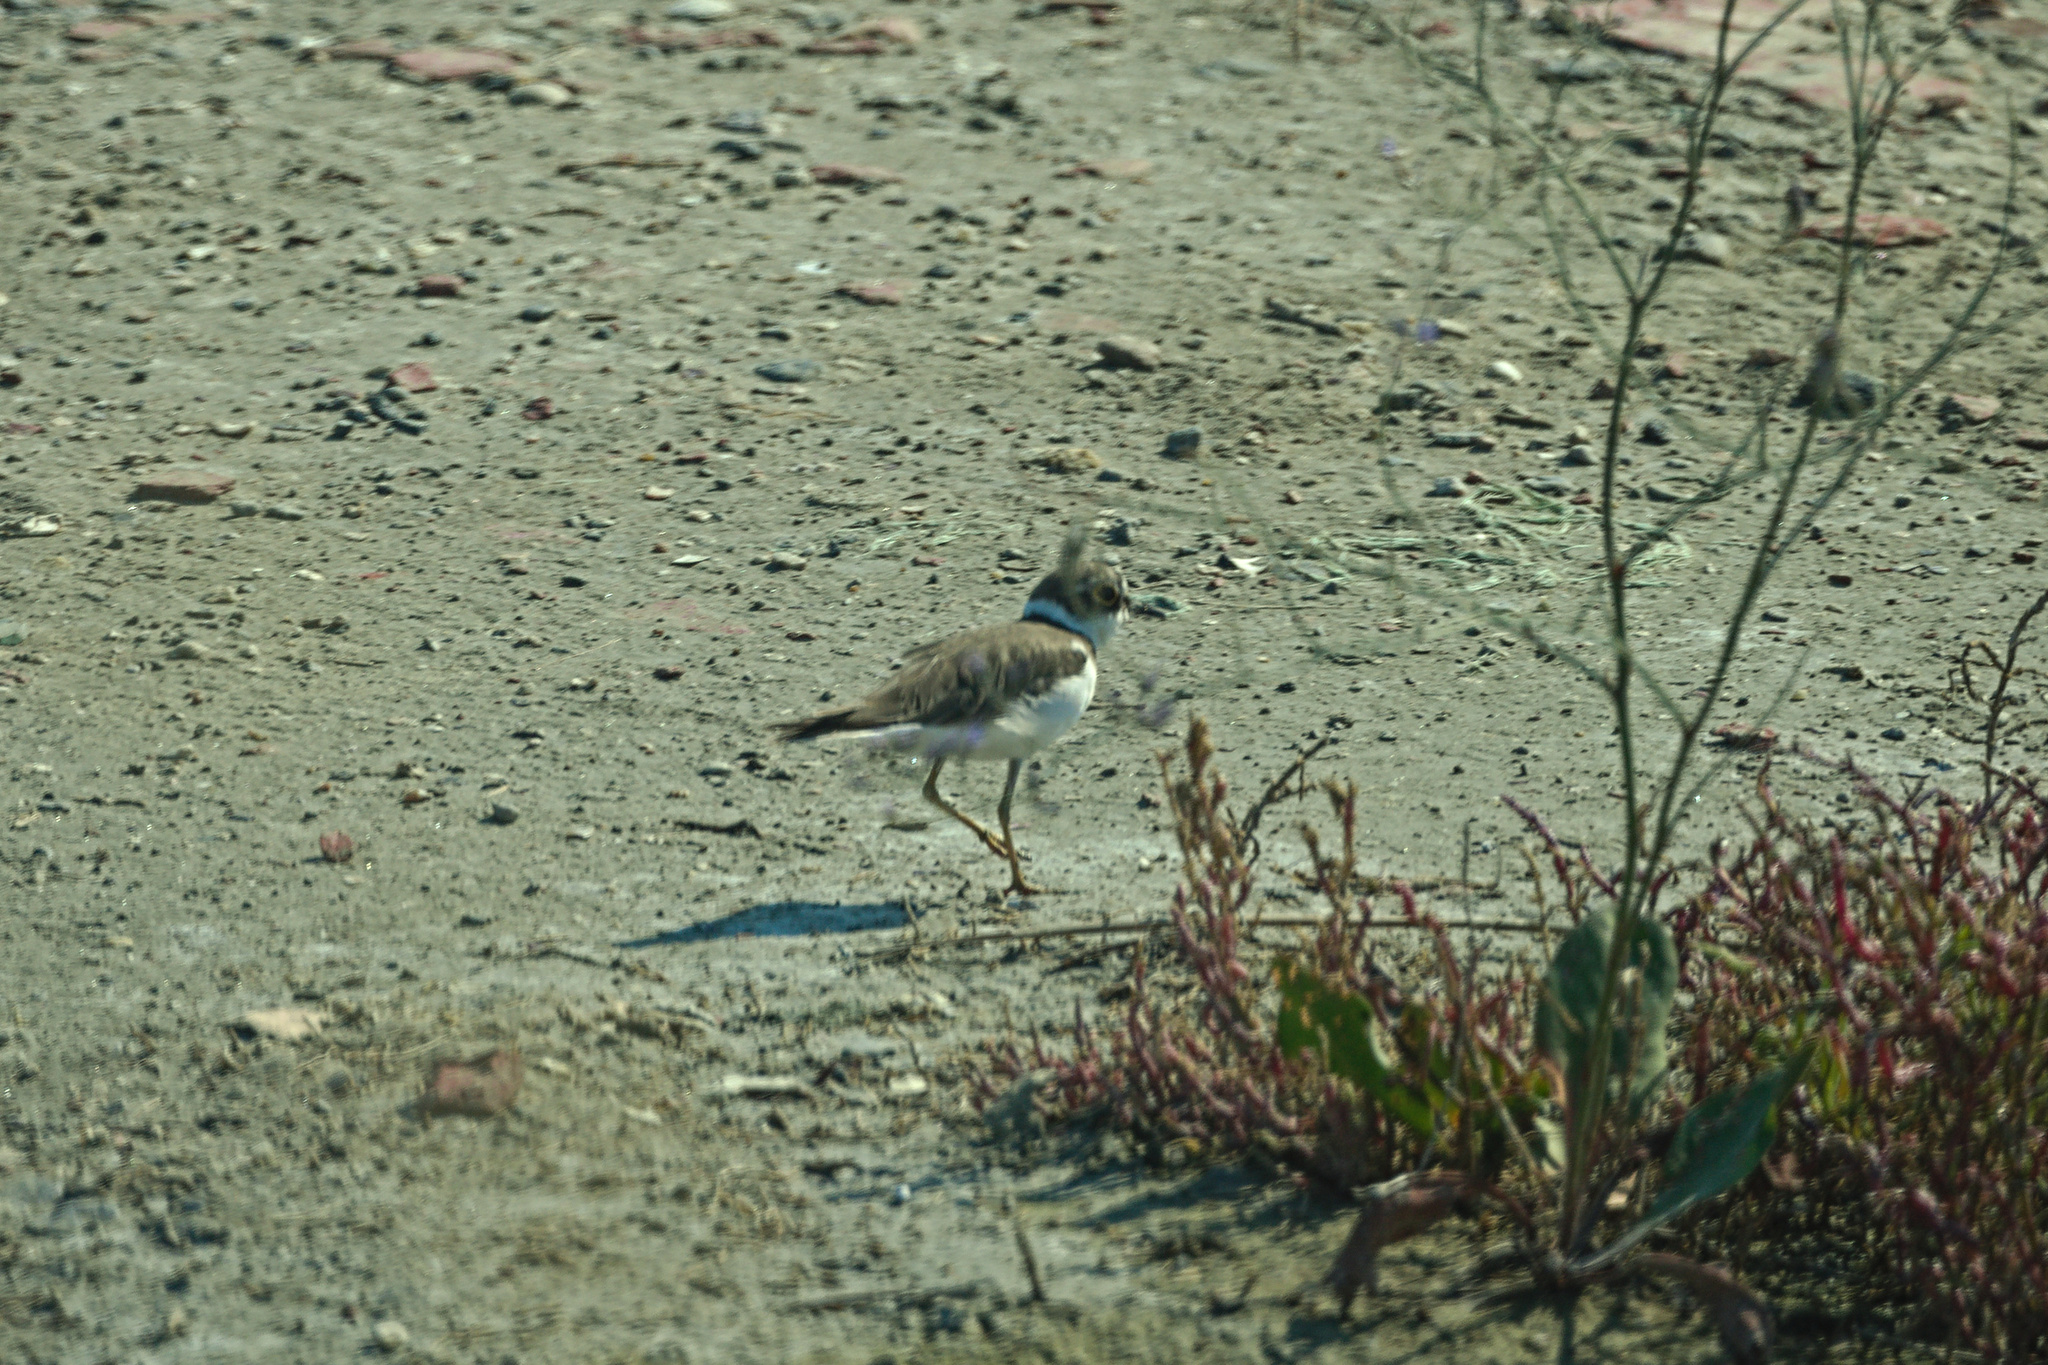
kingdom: Animalia
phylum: Chordata
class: Aves
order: Charadriiformes
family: Charadriidae
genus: Charadrius
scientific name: Charadrius dubius
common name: Little ringed plover
